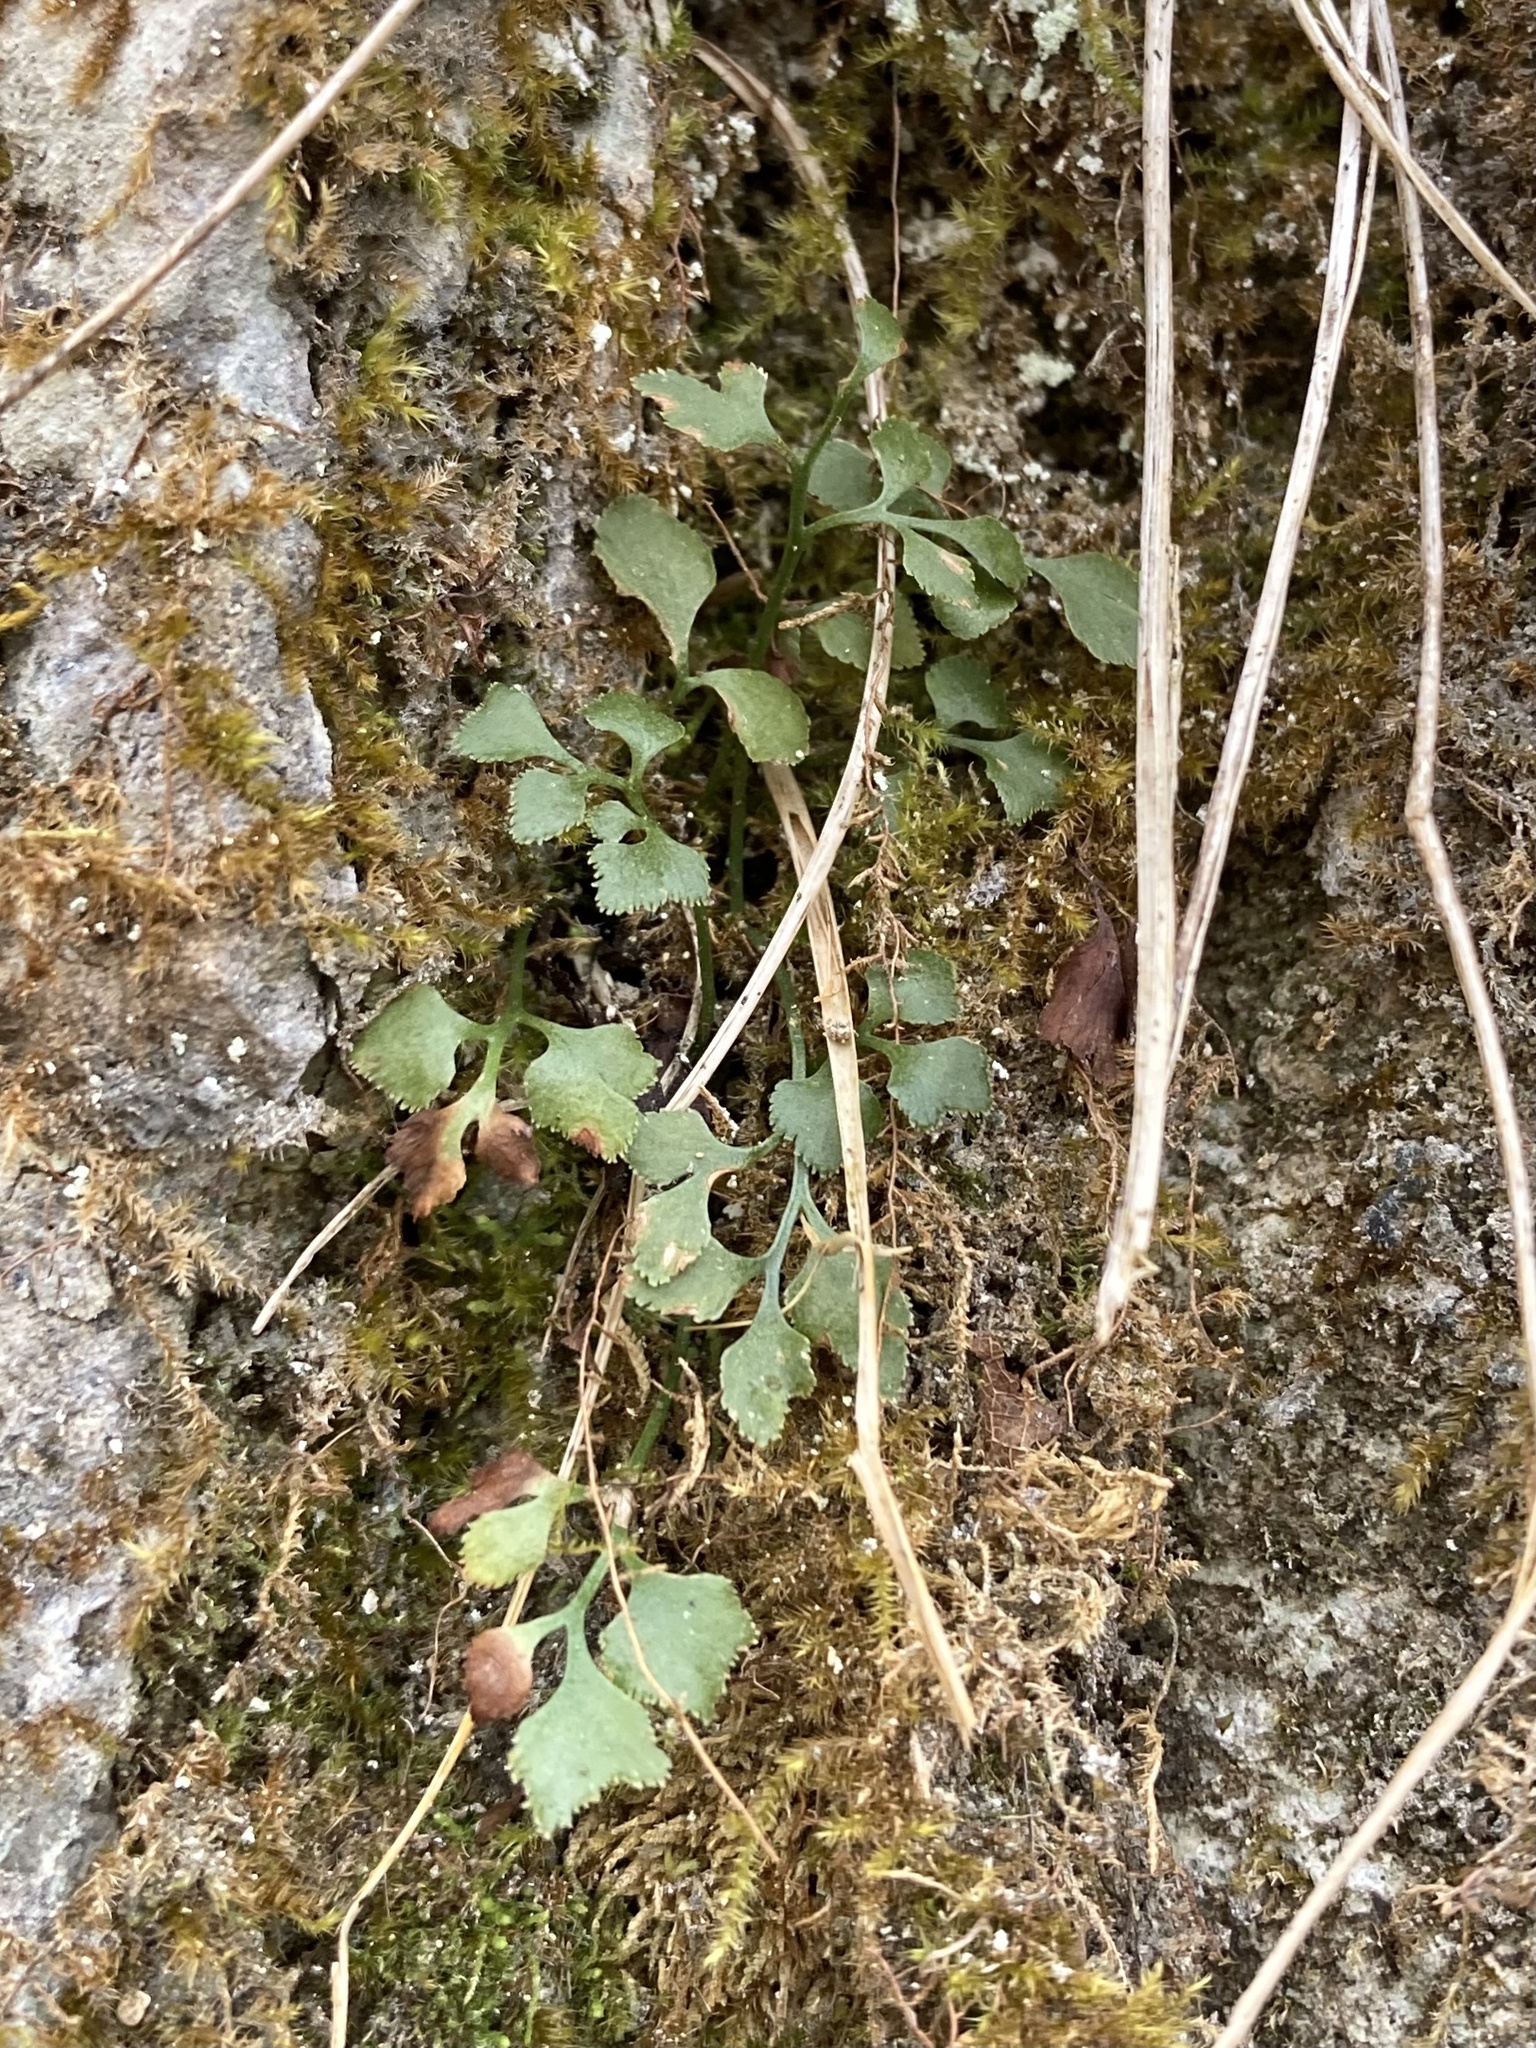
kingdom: Plantae
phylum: Tracheophyta
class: Polypodiopsida
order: Polypodiales
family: Aspleniaceae
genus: Asplenium
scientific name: Asplenium ruta-muraria
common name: Wall-rue
